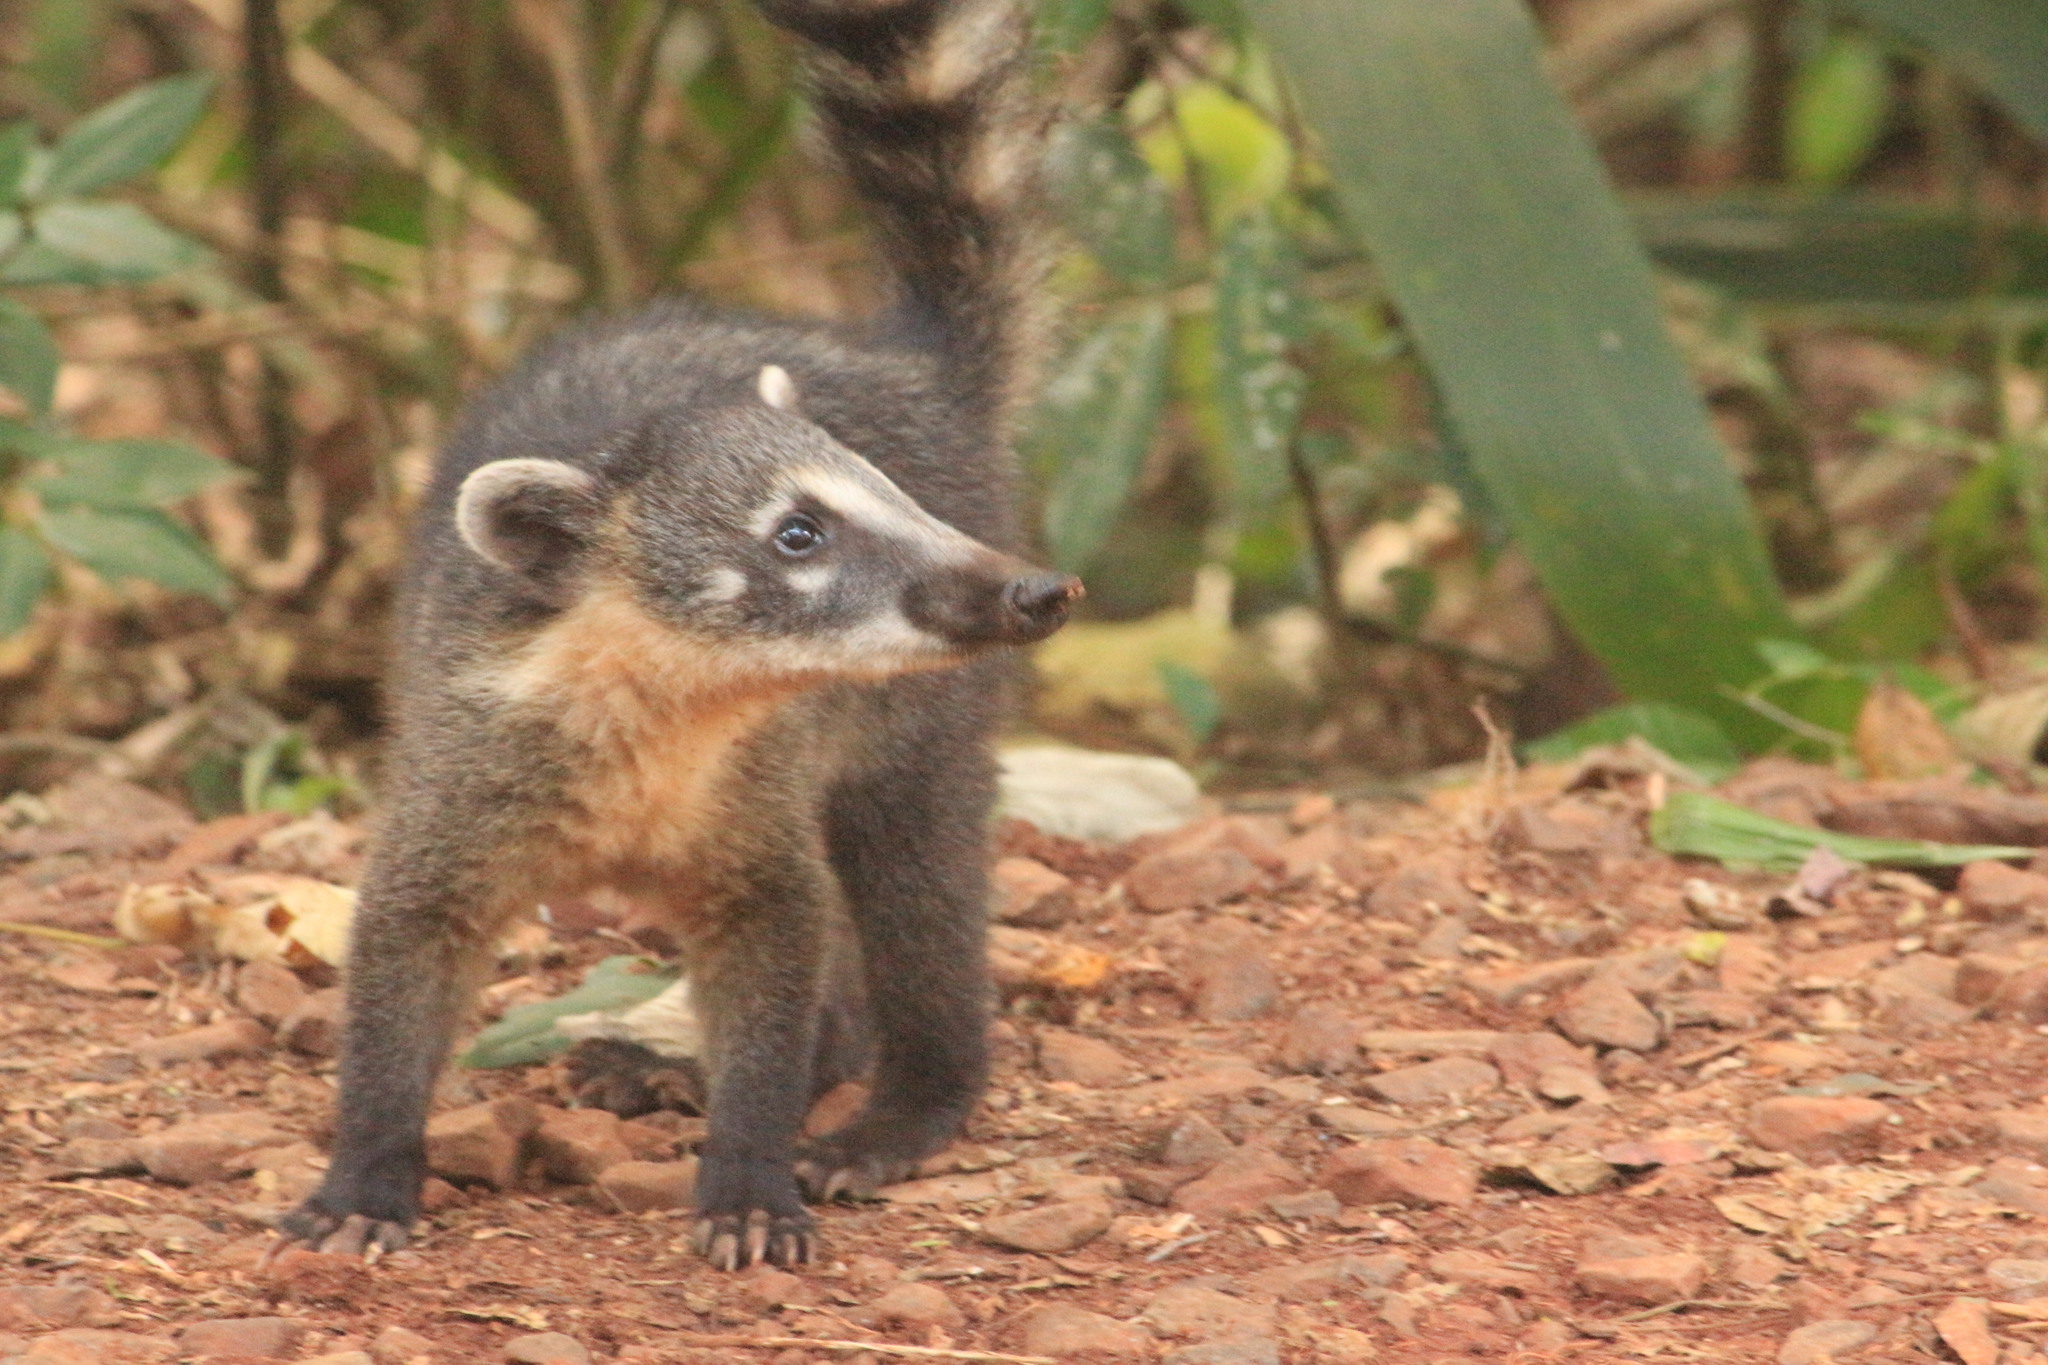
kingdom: Animalia
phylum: Chordata
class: Mammalia
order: Carnivora
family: Procyonidae
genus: Nasua
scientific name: Nasua nasua
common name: South american coati
